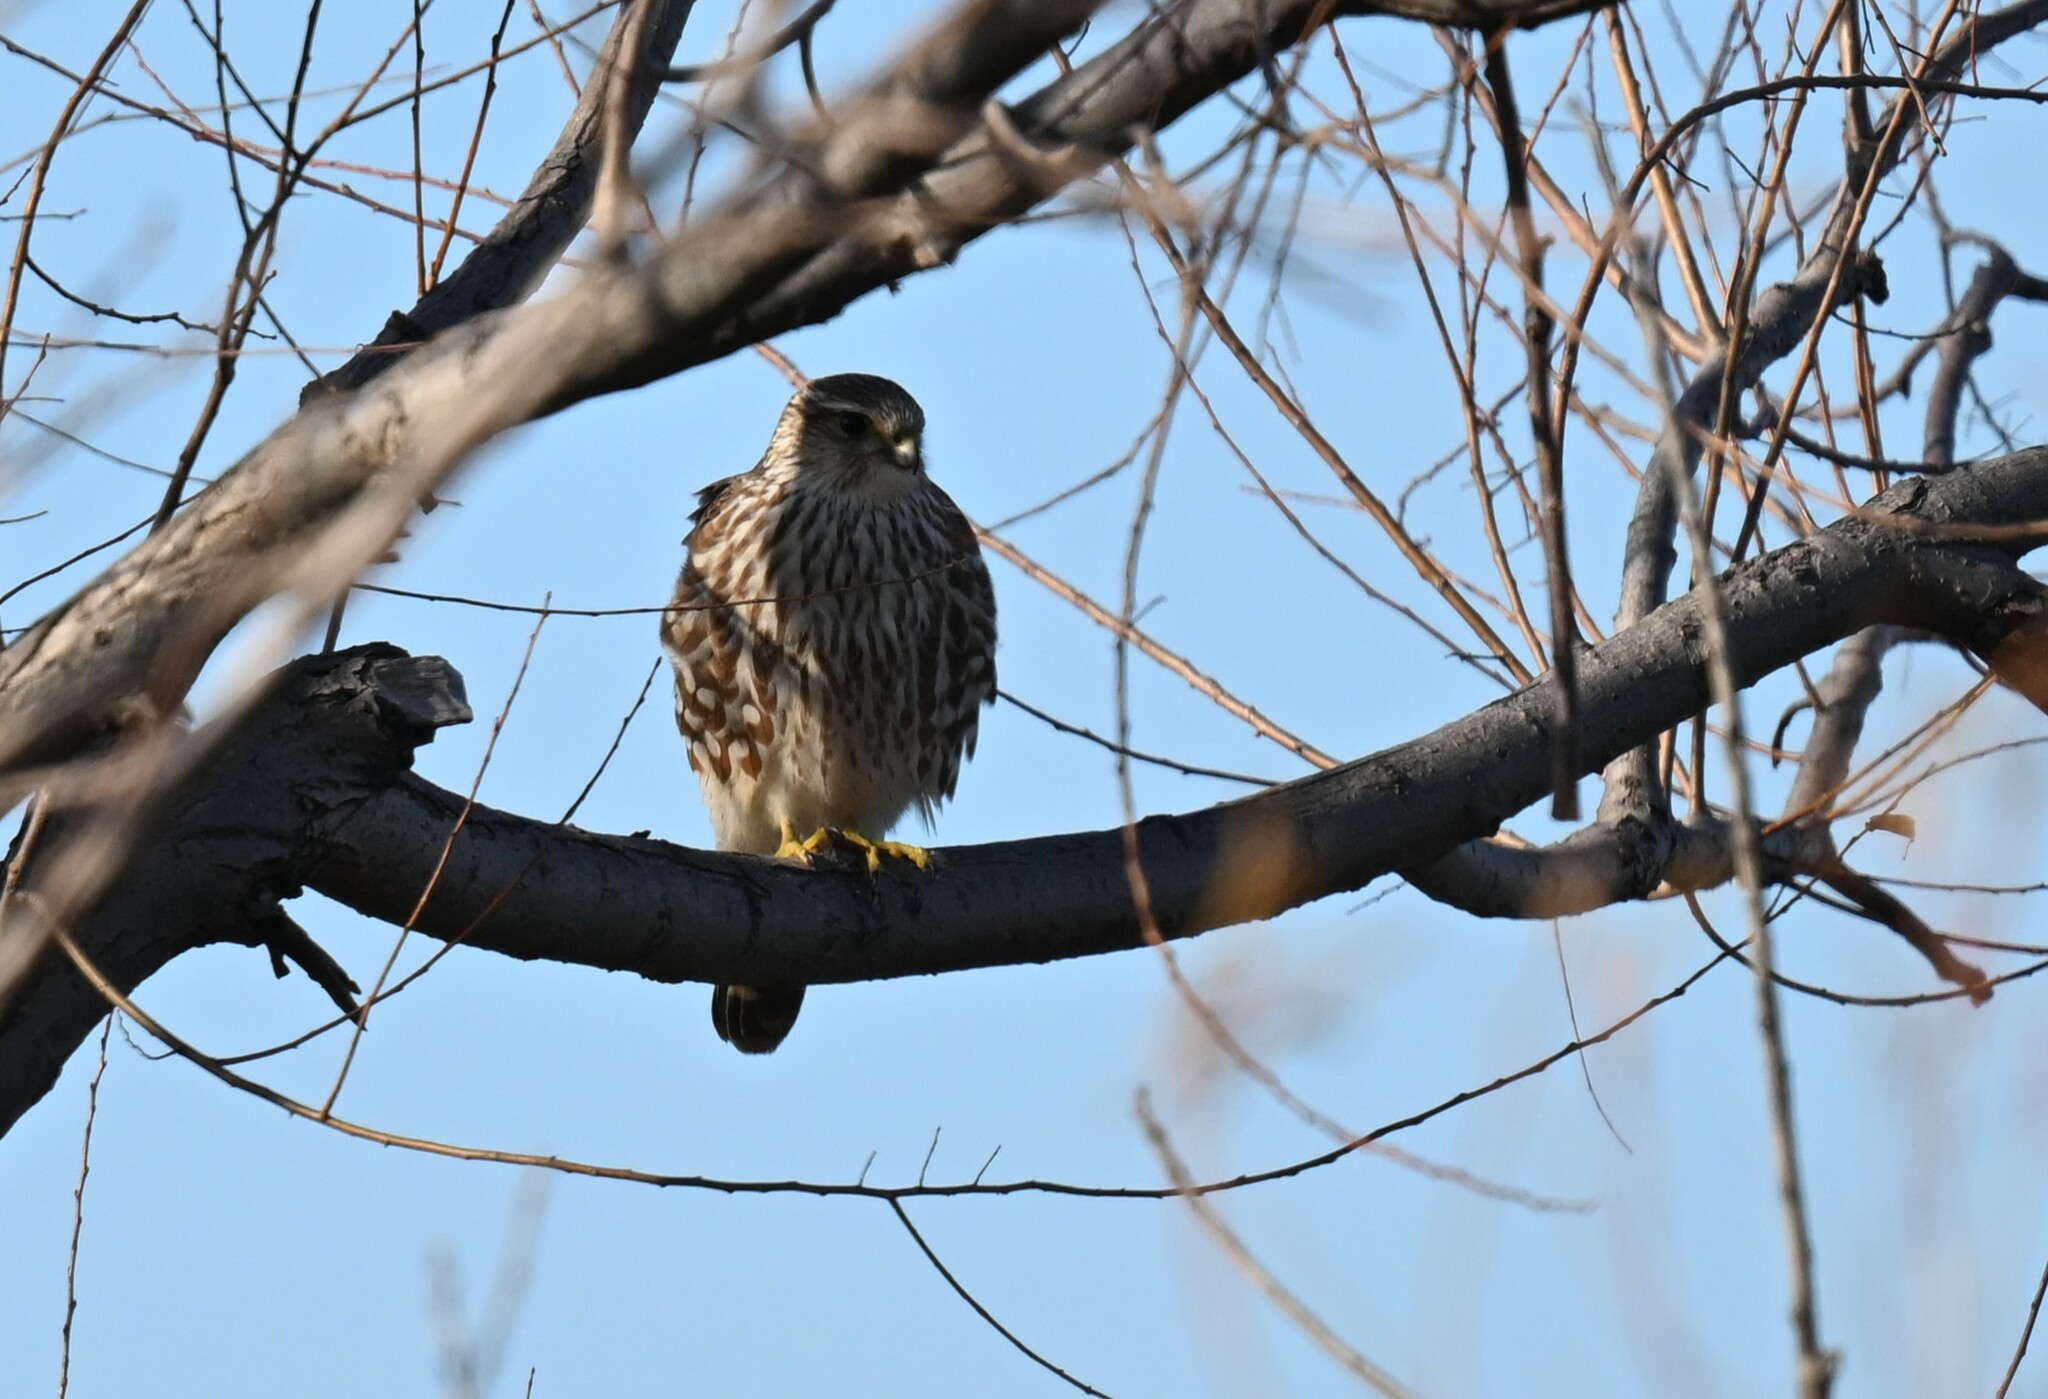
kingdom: Animalia
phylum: Chordata
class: Aves
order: Falconiformes
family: Falconidae
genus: Falco
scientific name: Falco columbarius
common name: Merlin
